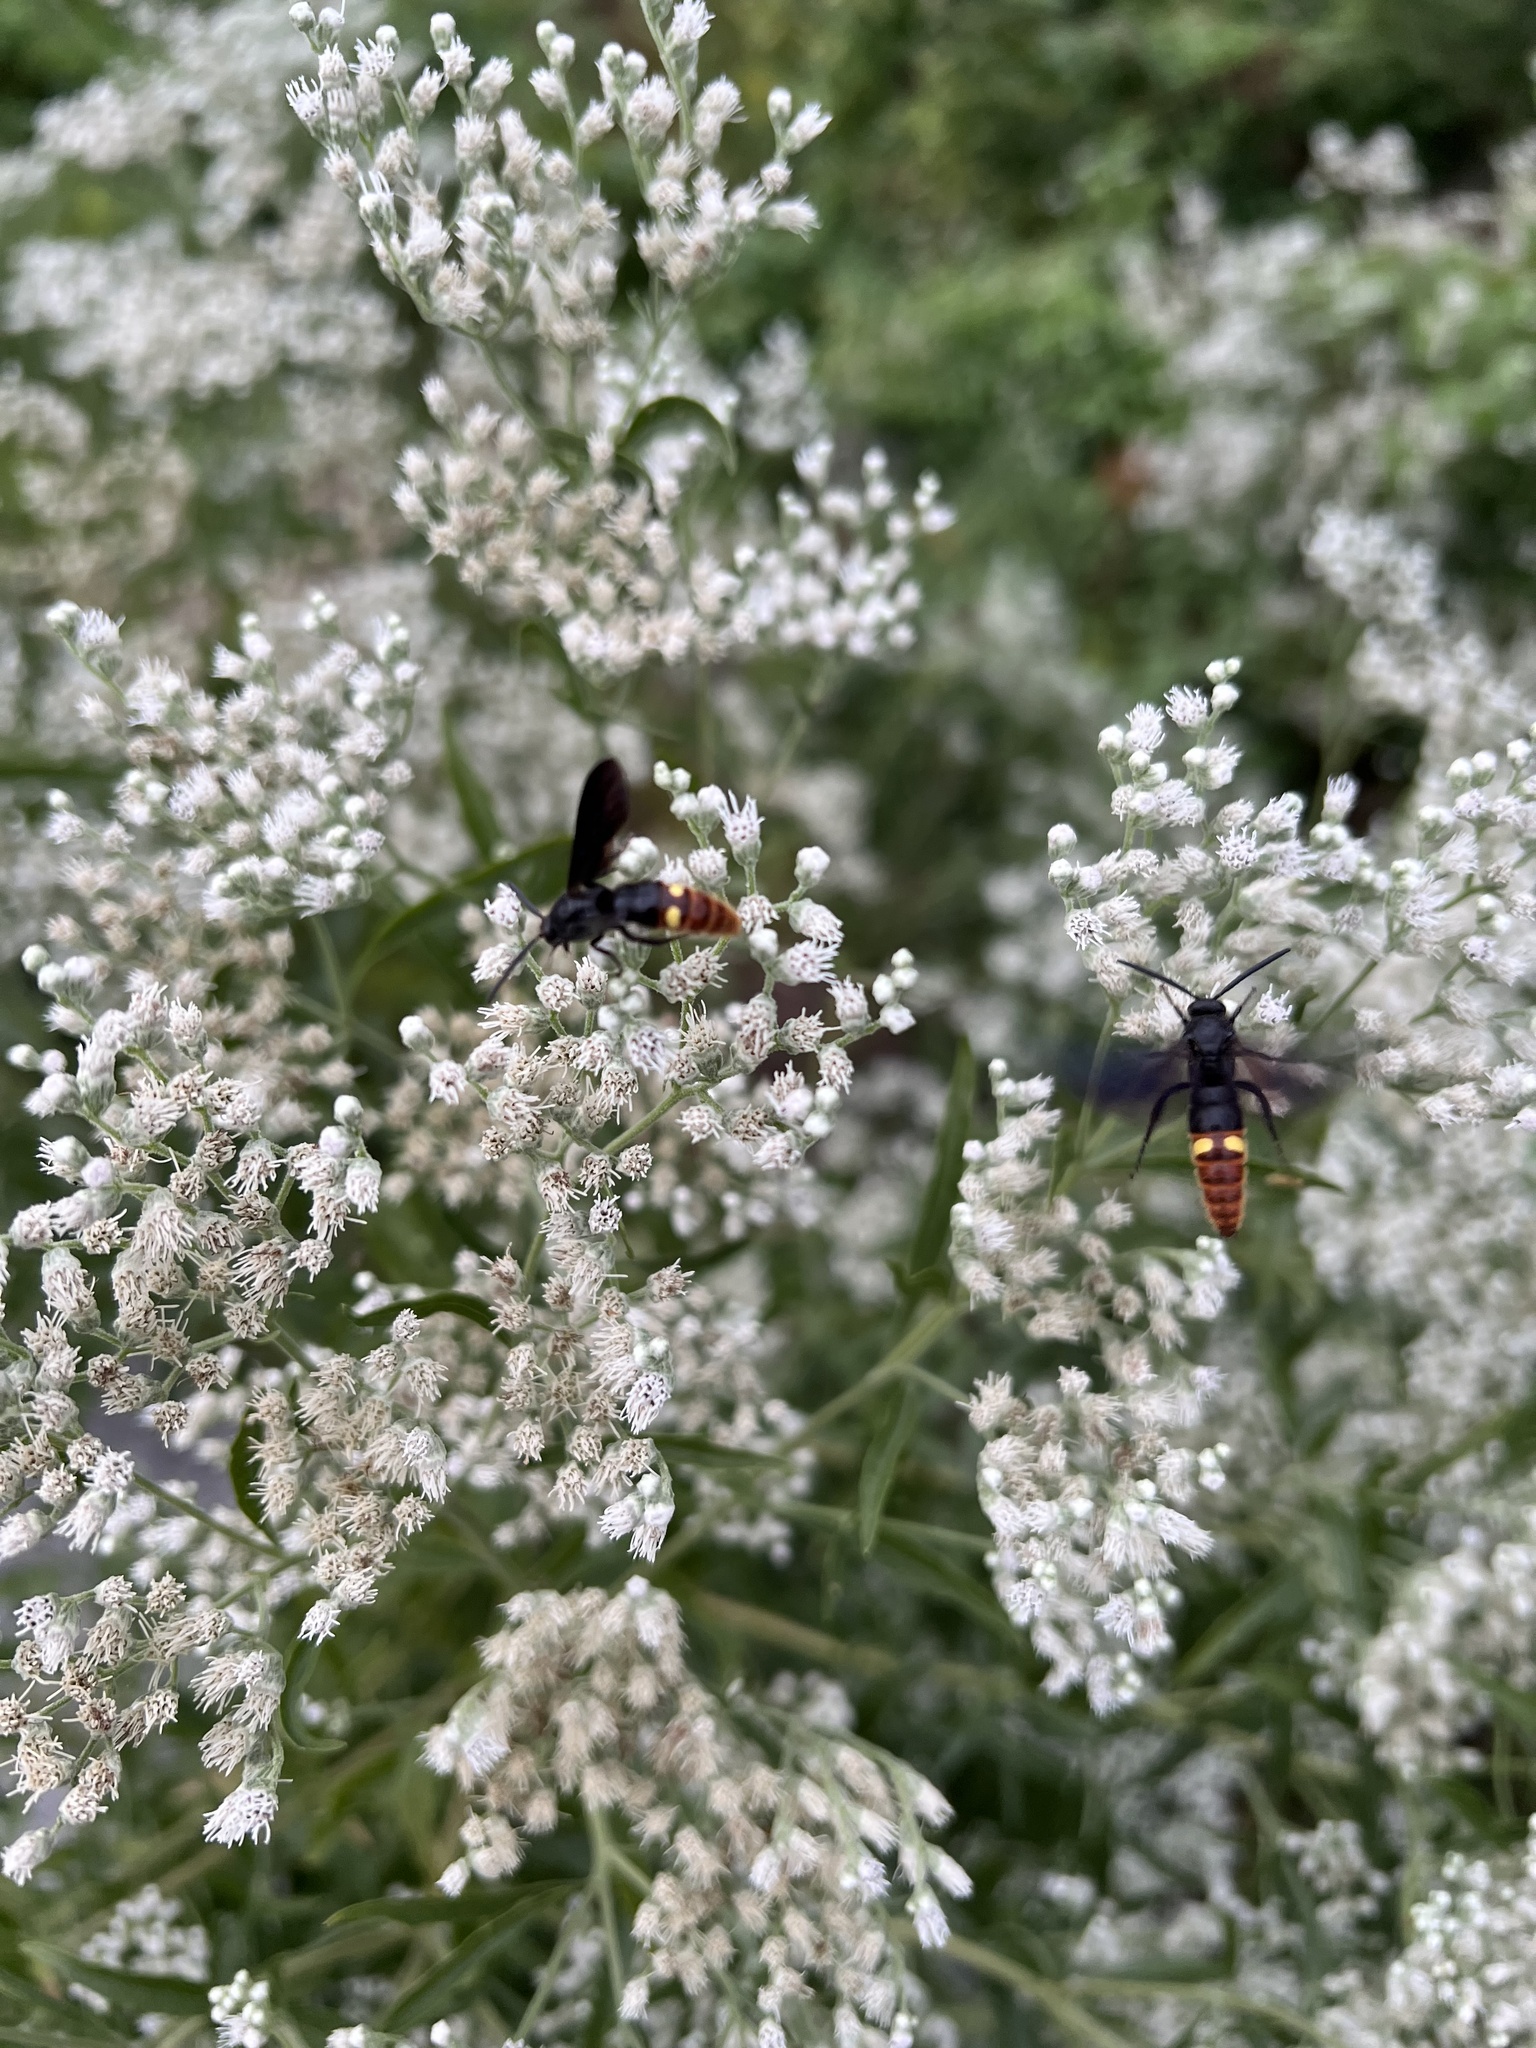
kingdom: Animalia
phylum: Arthropoda
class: Insecta
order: Hymenoptera
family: Scoliidae
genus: Scolia
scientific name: Scolia dubia
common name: Blue-winged scoliid wasp
